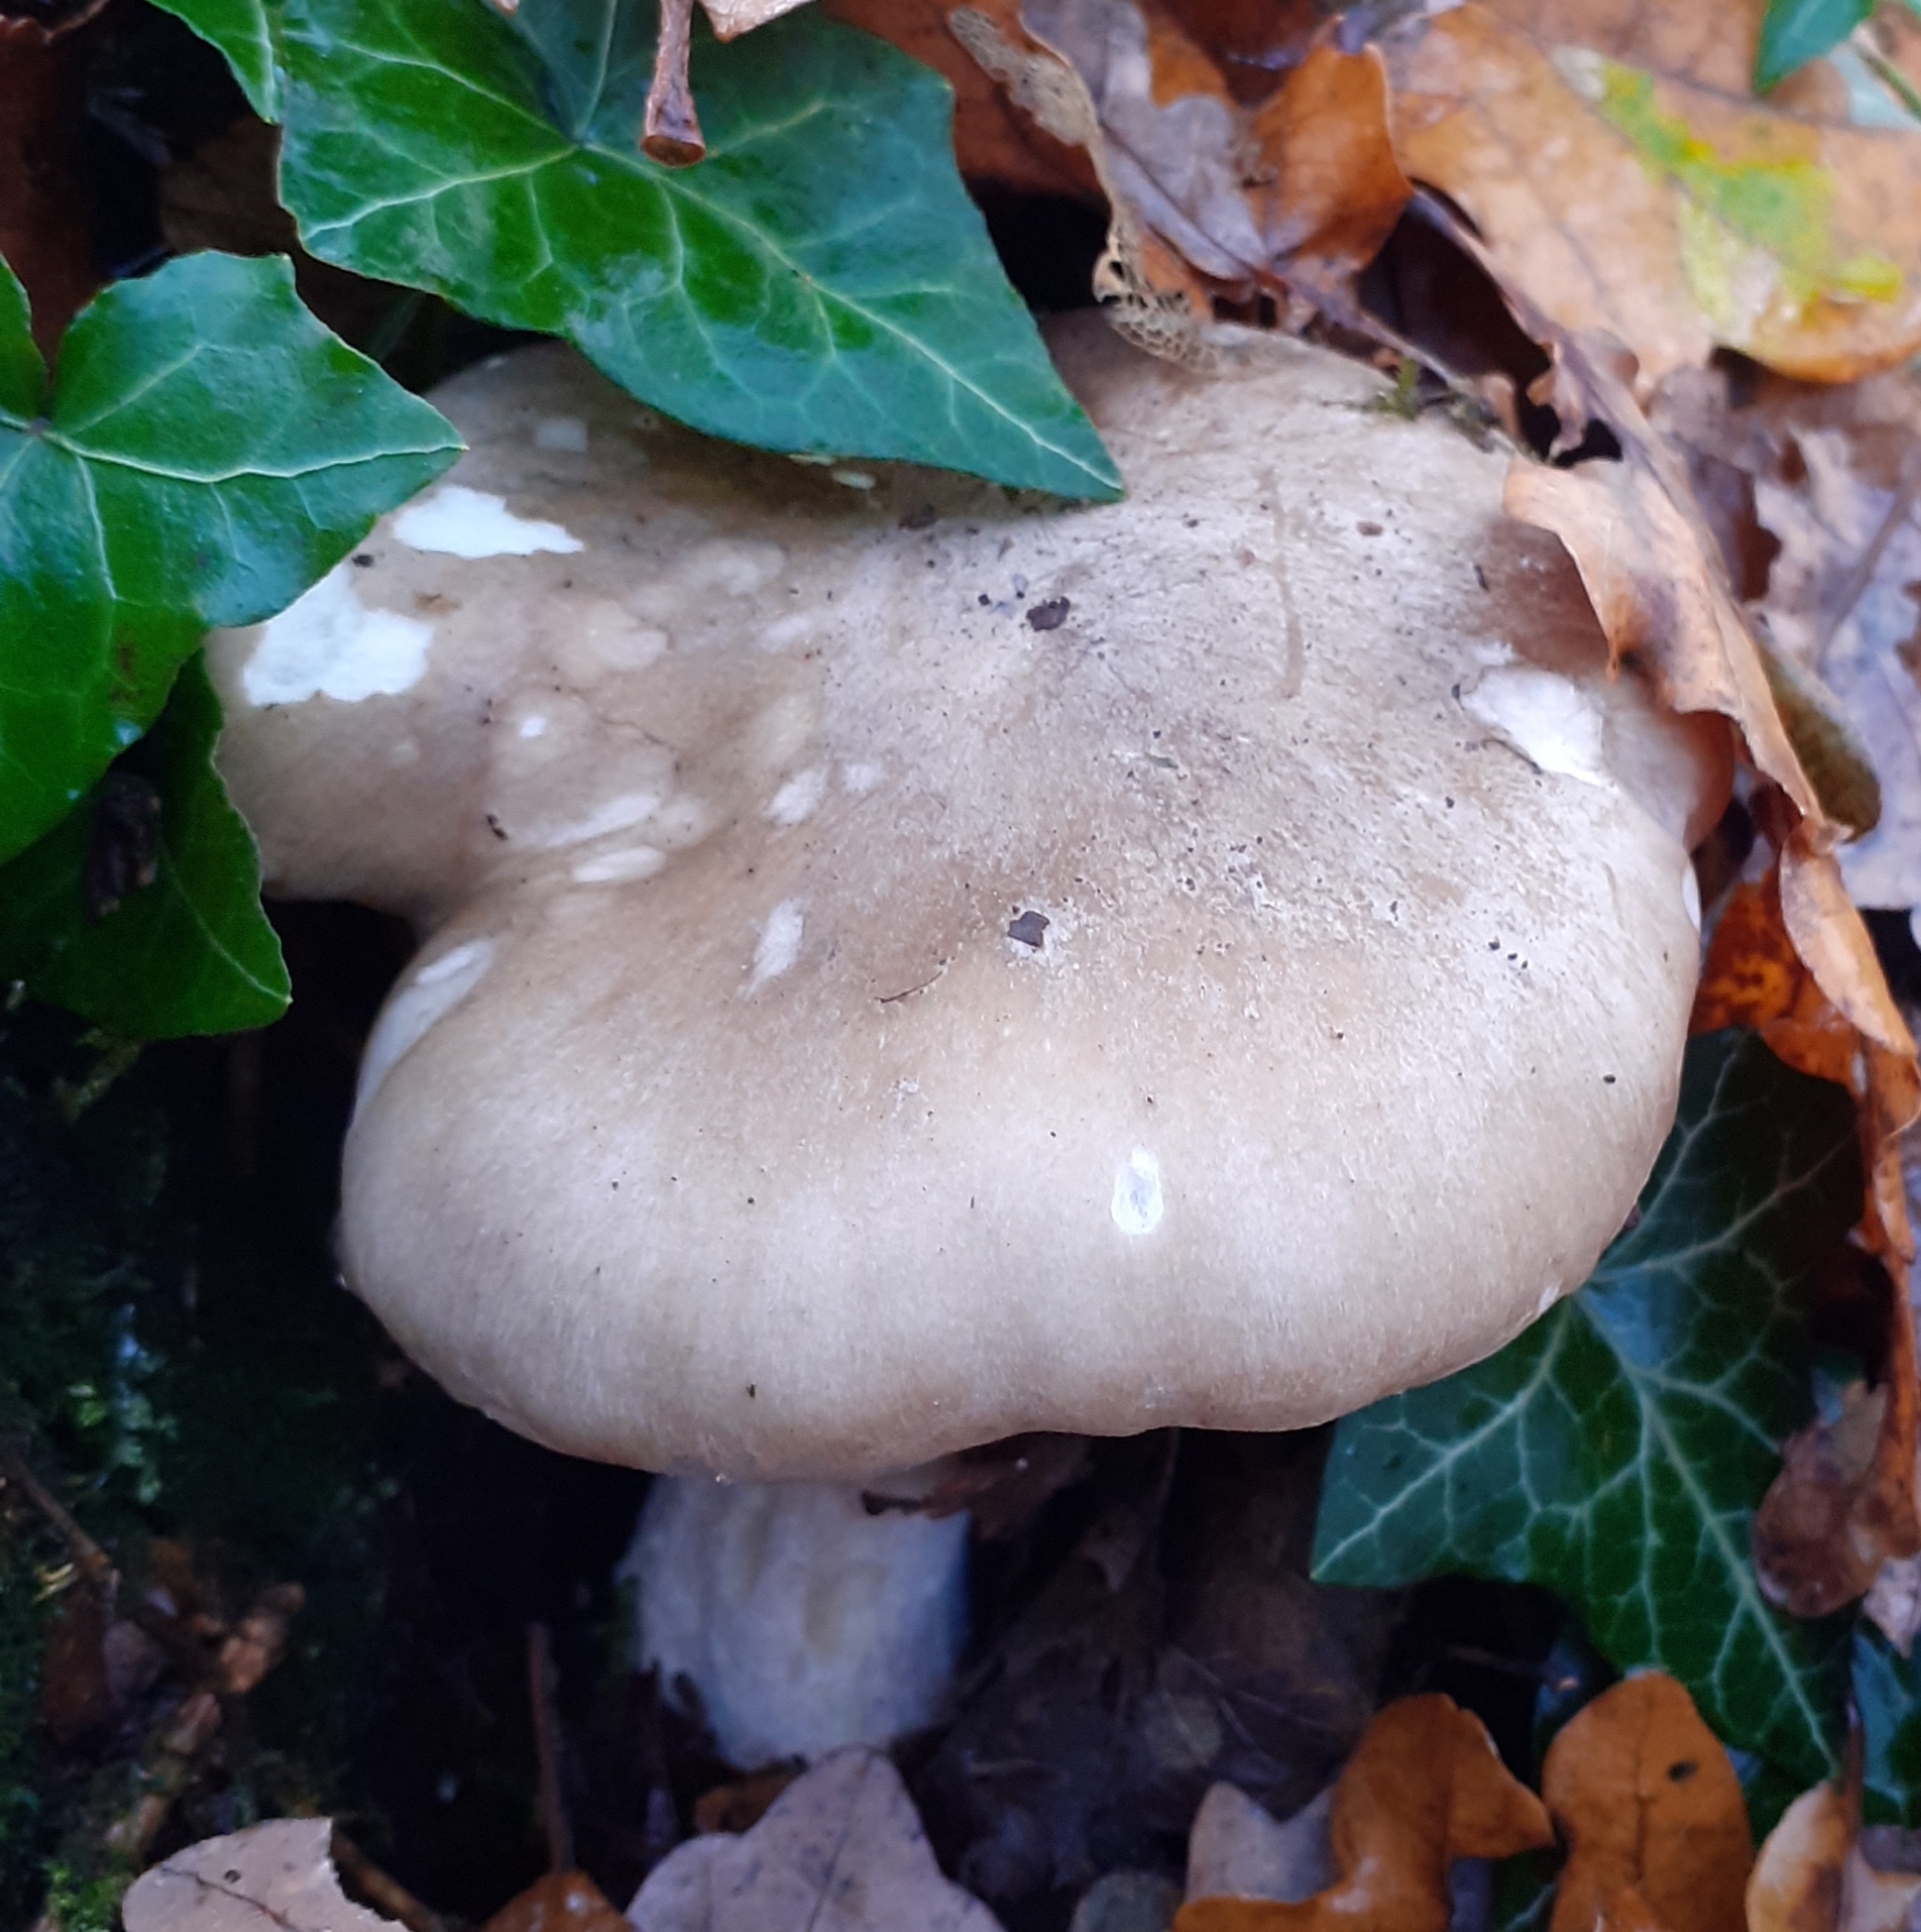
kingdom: Fungi
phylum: Basidiomycota
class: Agaricomycetes
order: Agaricales
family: Tricholomataceae
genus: Clitocybe
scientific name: Clitocybe nebularis
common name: Clouded agaric
